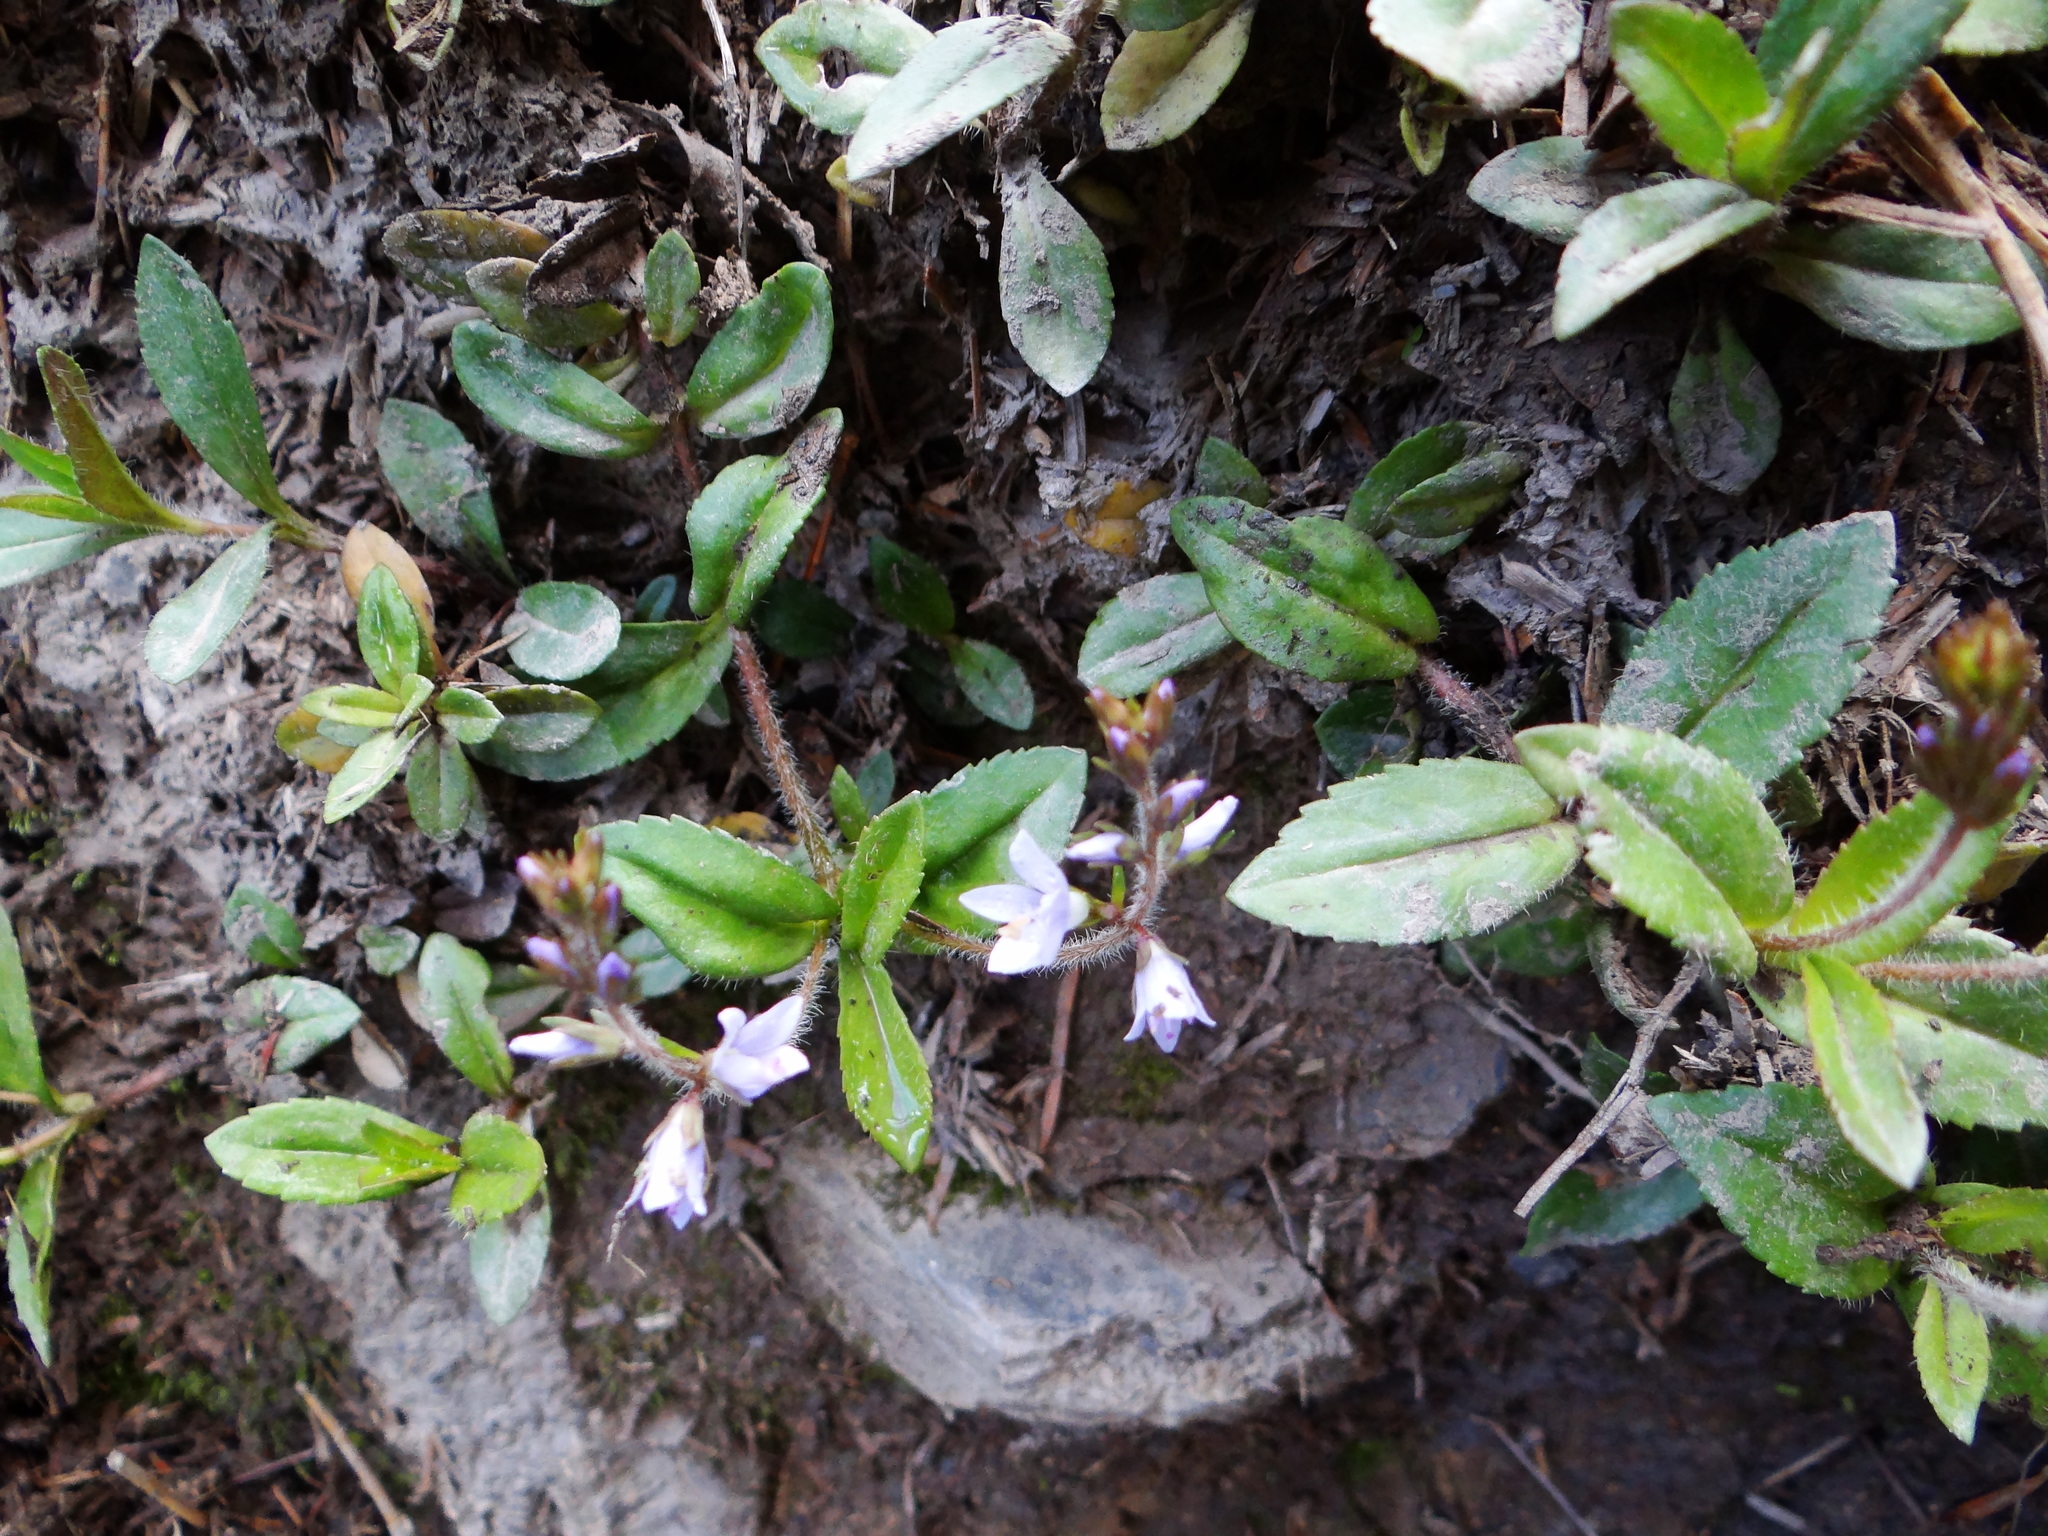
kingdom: Plantae
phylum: Tracheophyta
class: Magnoliopsida
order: Lamiales
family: Plantaginaceae
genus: Veronica
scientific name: Veronica morrisonicola
